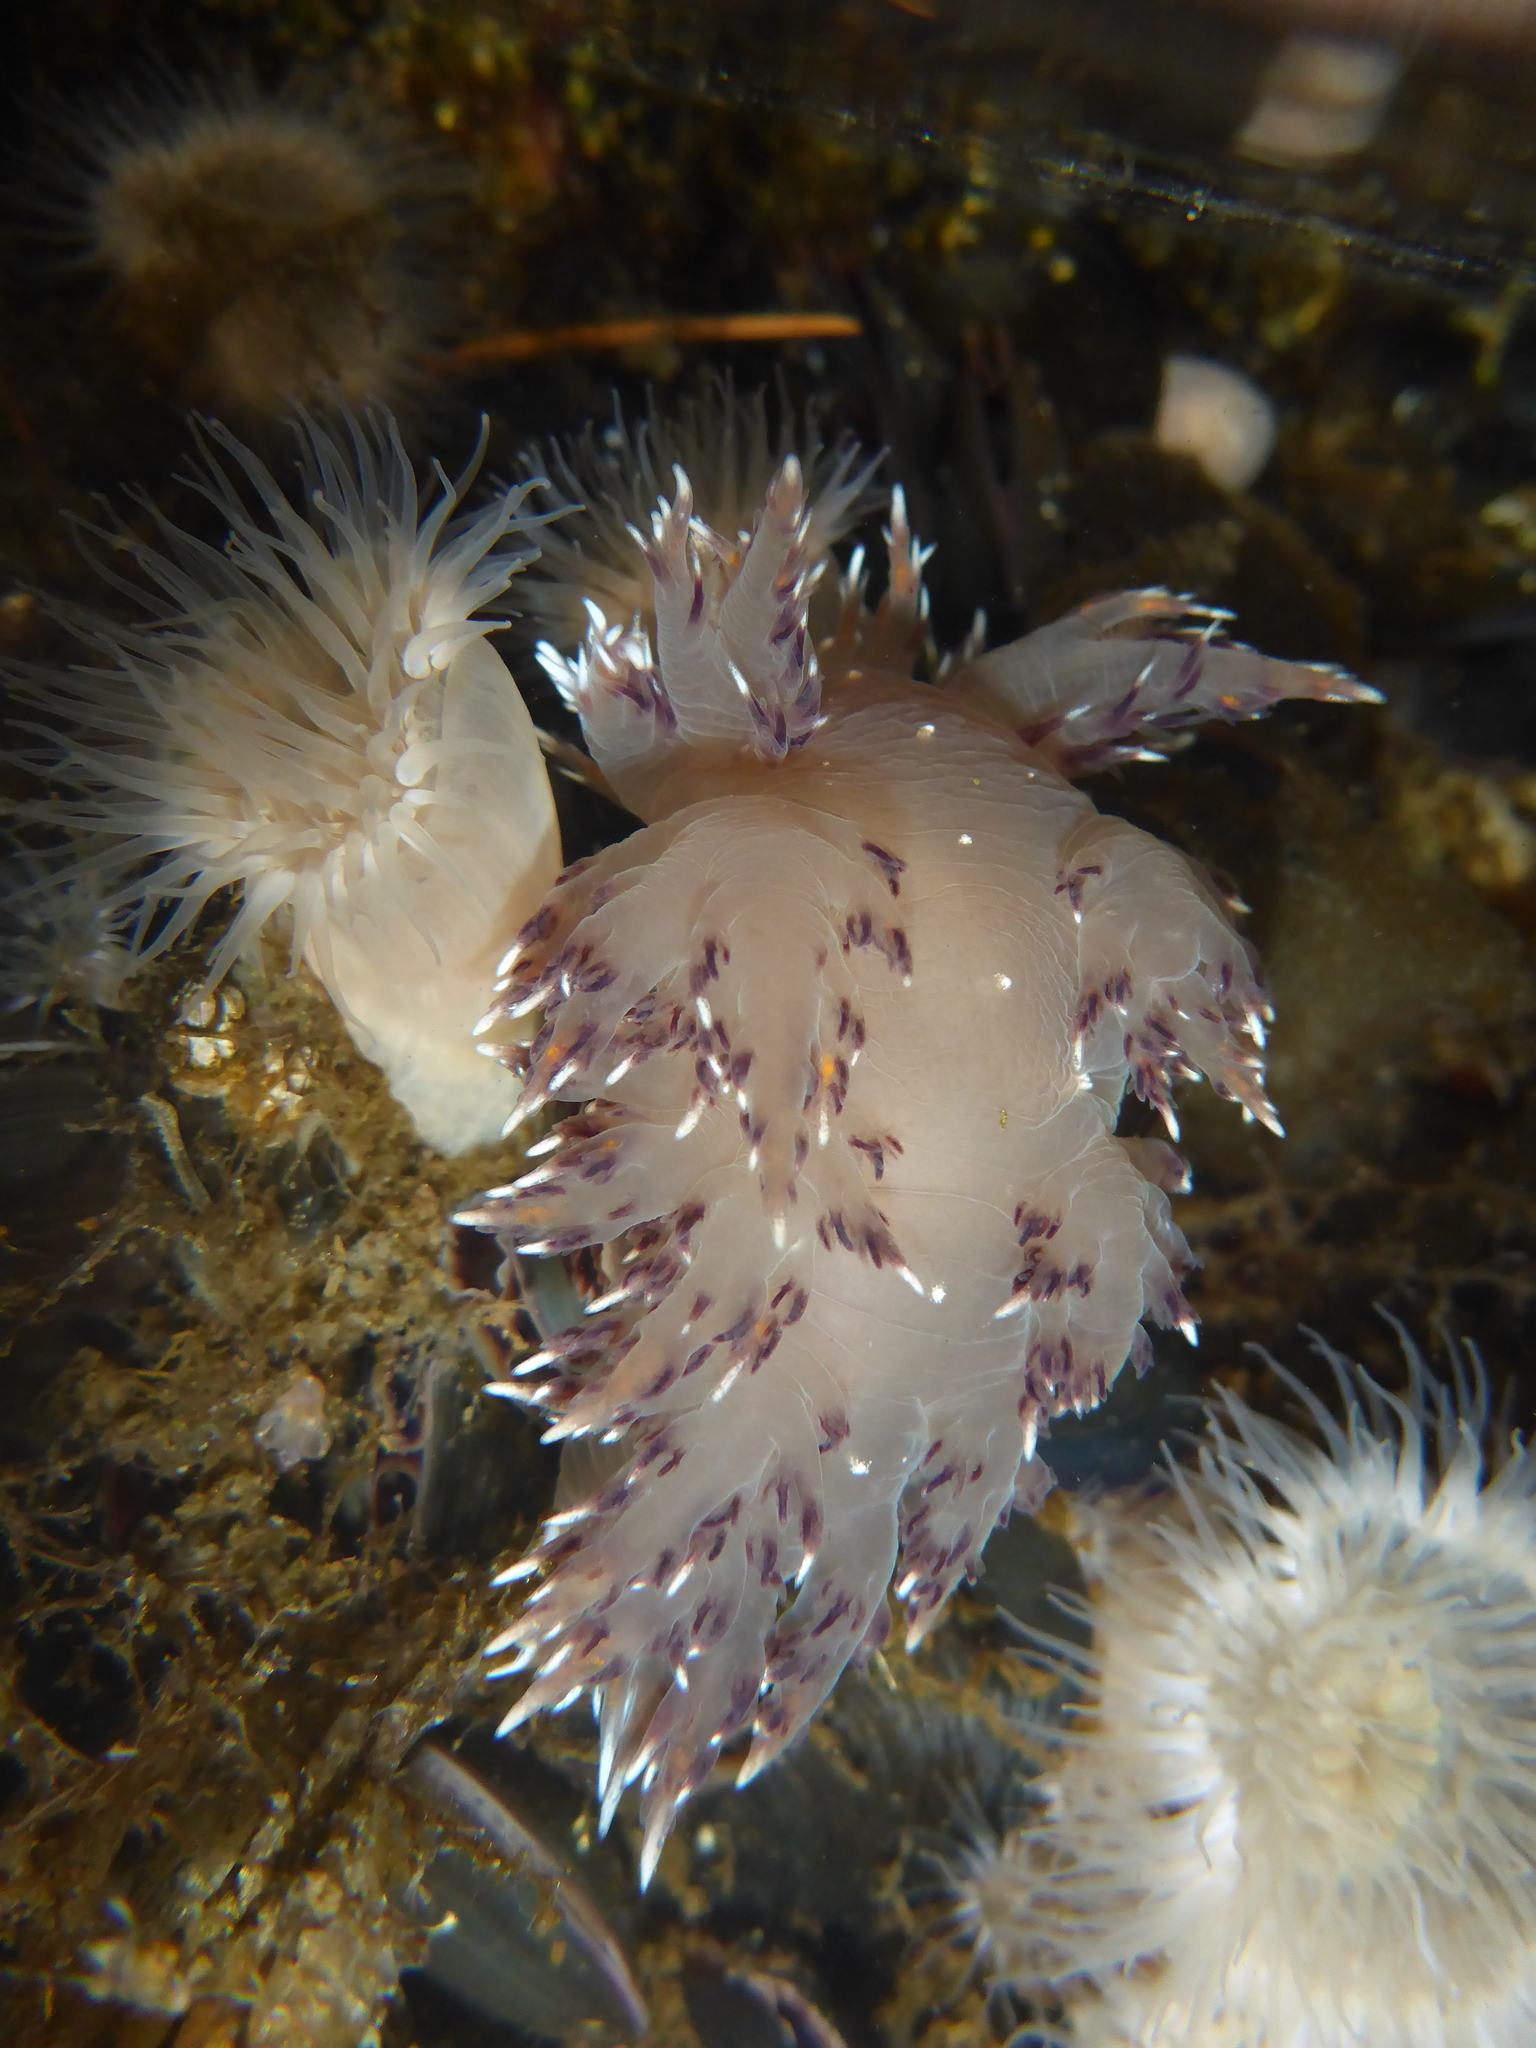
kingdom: Animalia
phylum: Mollusca
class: Gastropoda
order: Nudibranchia
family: Dendronotidae
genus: Dendronotus
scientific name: Dendronotus iris
